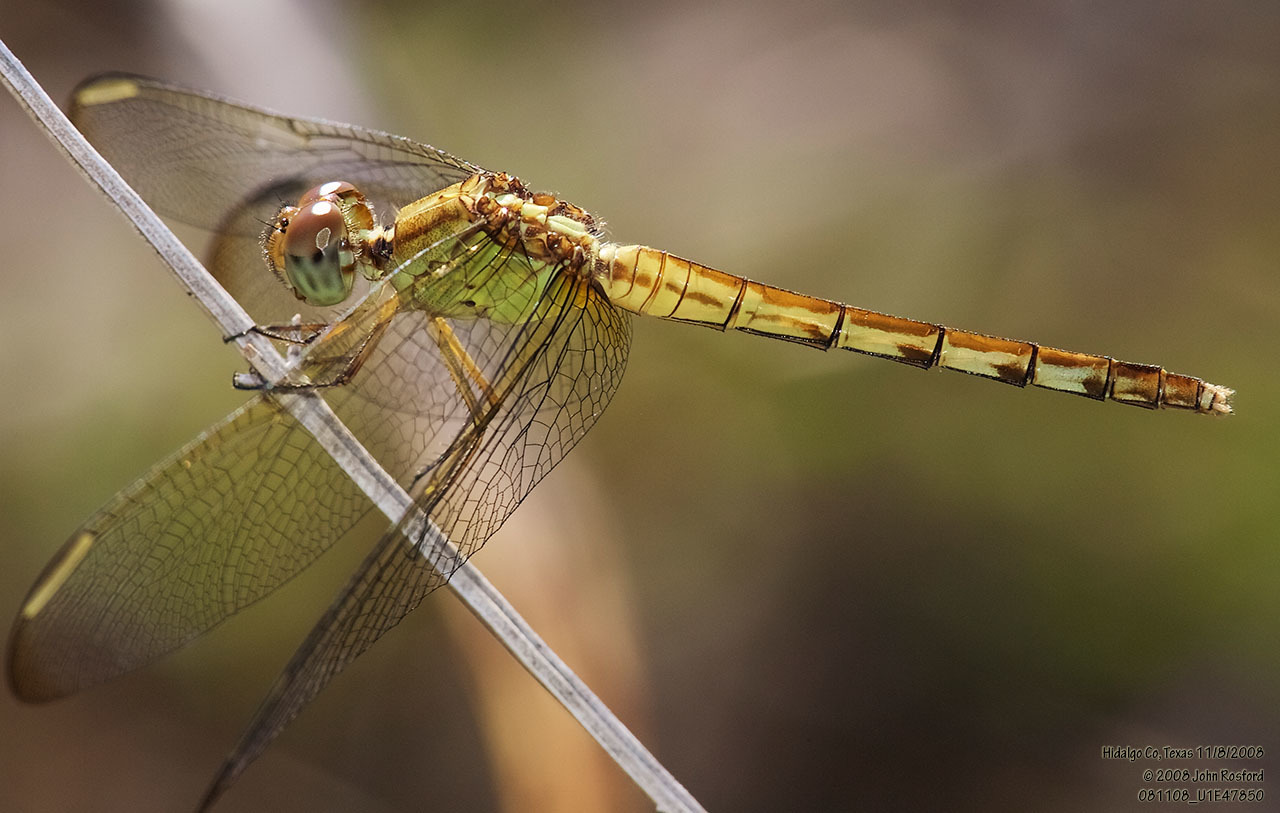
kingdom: Animalia
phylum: Arthropoda
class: Insecta
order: Odonata
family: Libellulidae
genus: Erythrodiplax
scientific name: Erythrodiplax umbrata
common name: Band-winged dragonlet
